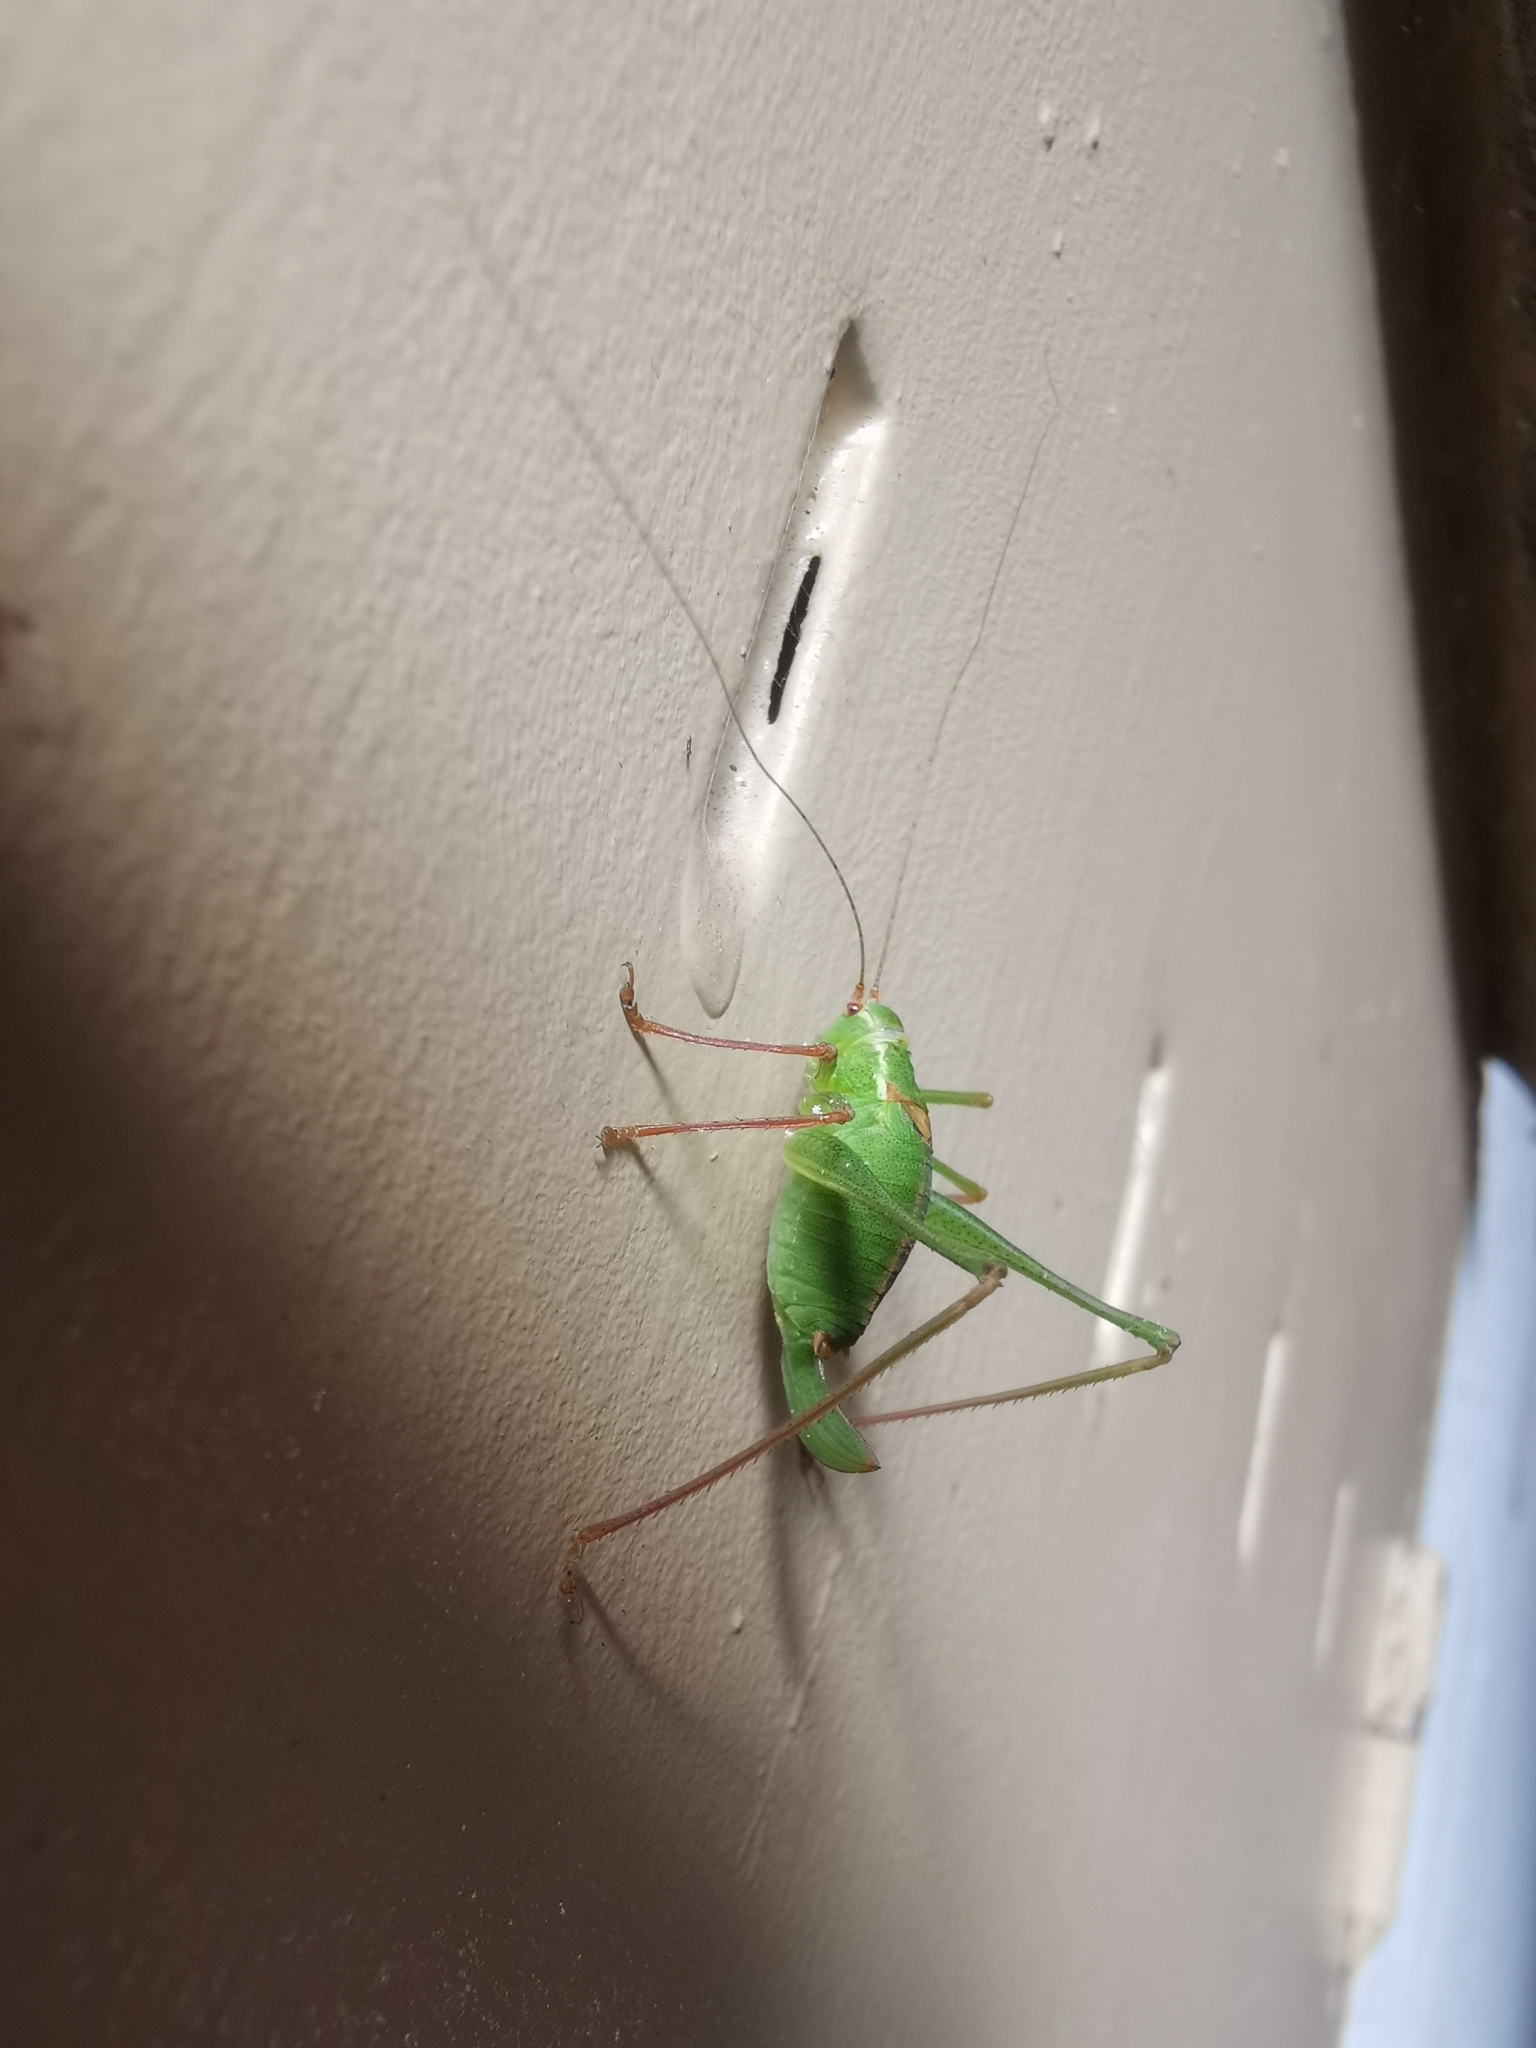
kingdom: Animalia
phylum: Arthropoda
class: Insecta
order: Orthoptera
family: Tettigoniidae
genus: Leptophyes
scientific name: Leptophyes punctatissima
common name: Speckled bush-cricket
